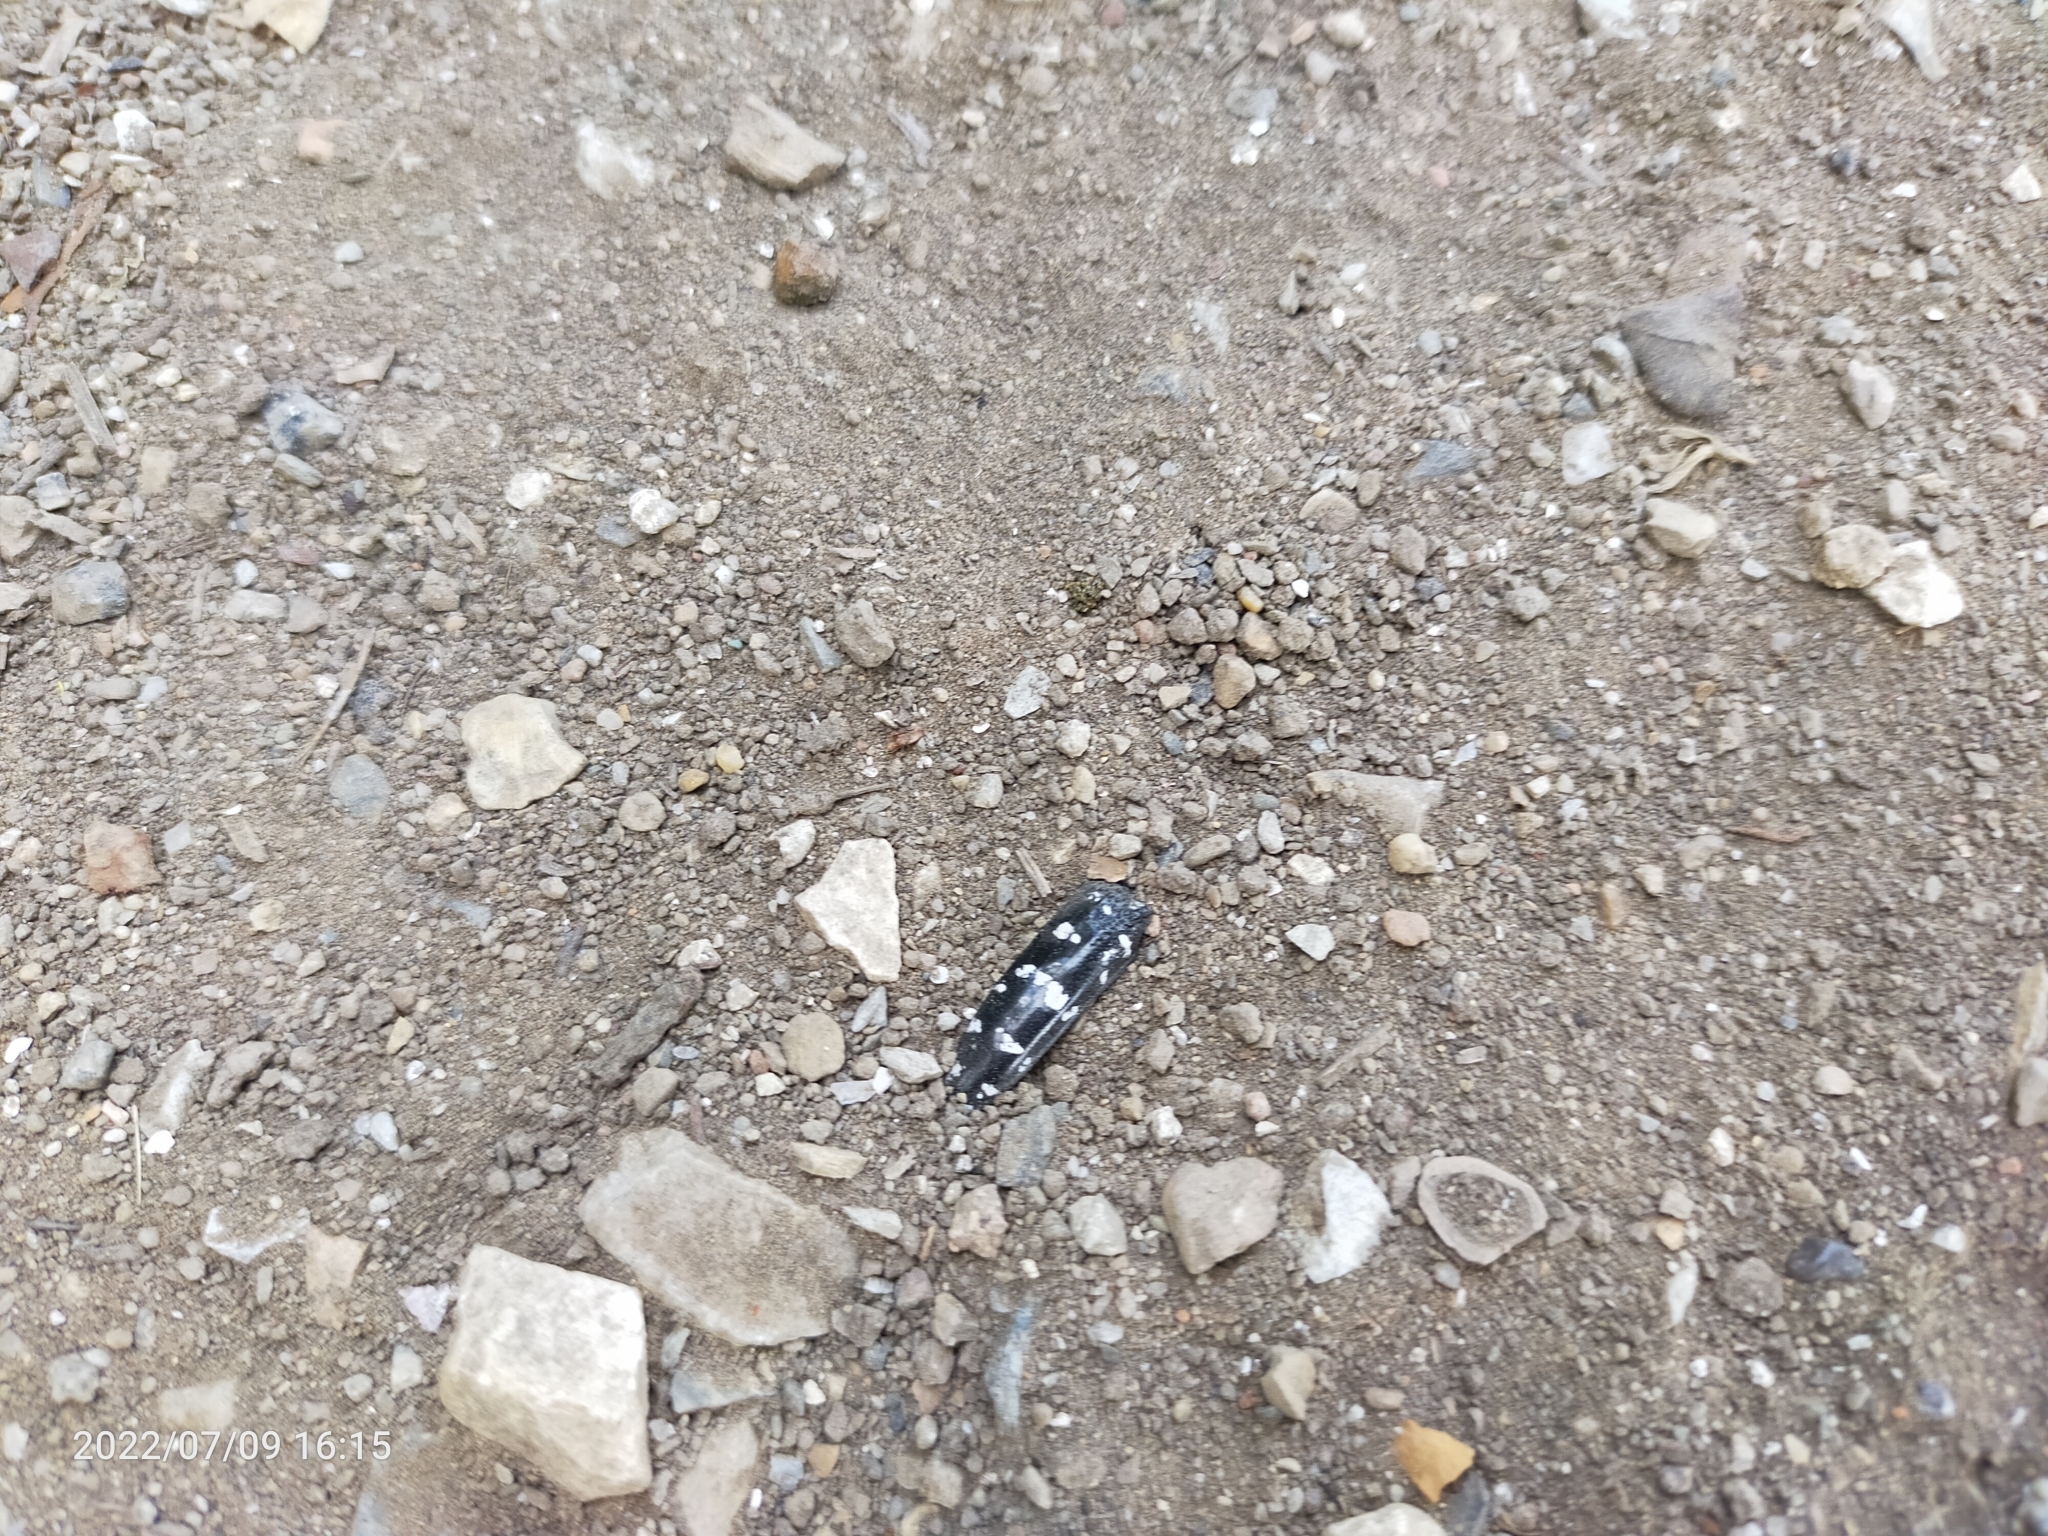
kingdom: Animalia
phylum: Arthropoda
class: Insecta
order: Coleoptera
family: Cerambycidae
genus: Anoplophora
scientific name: Anoplophora
